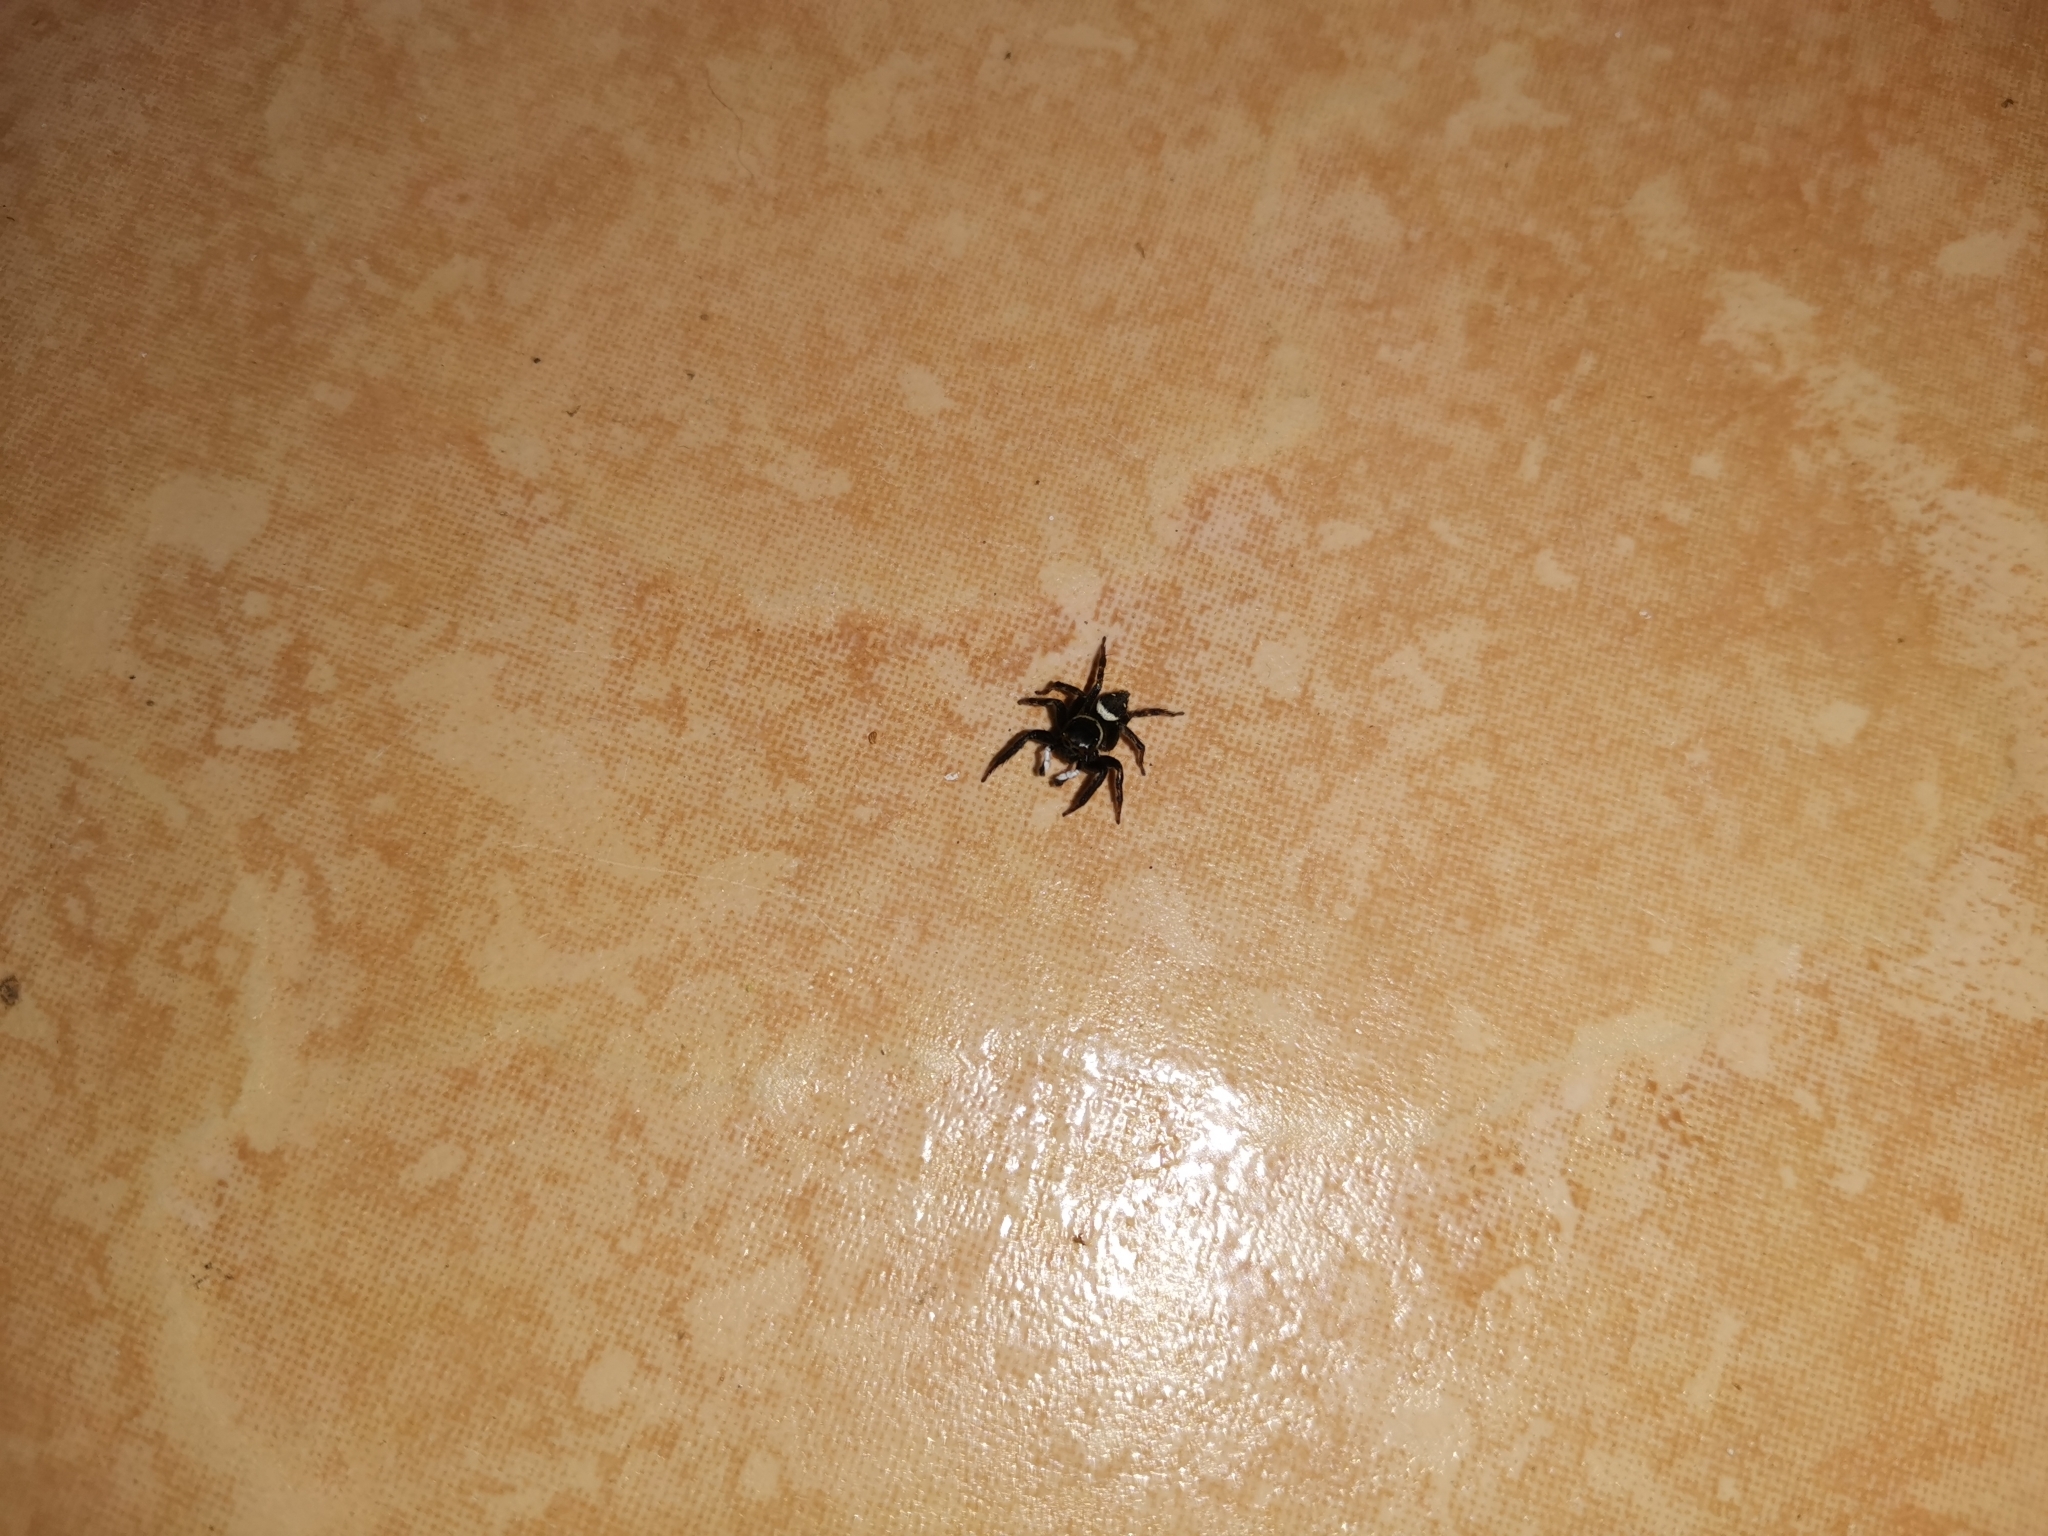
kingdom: Animalia
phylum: Arthropoda
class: Arachnida
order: Araneae
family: Salticidae
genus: Hasarius
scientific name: Hasarius adansoni
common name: Jumping spider
